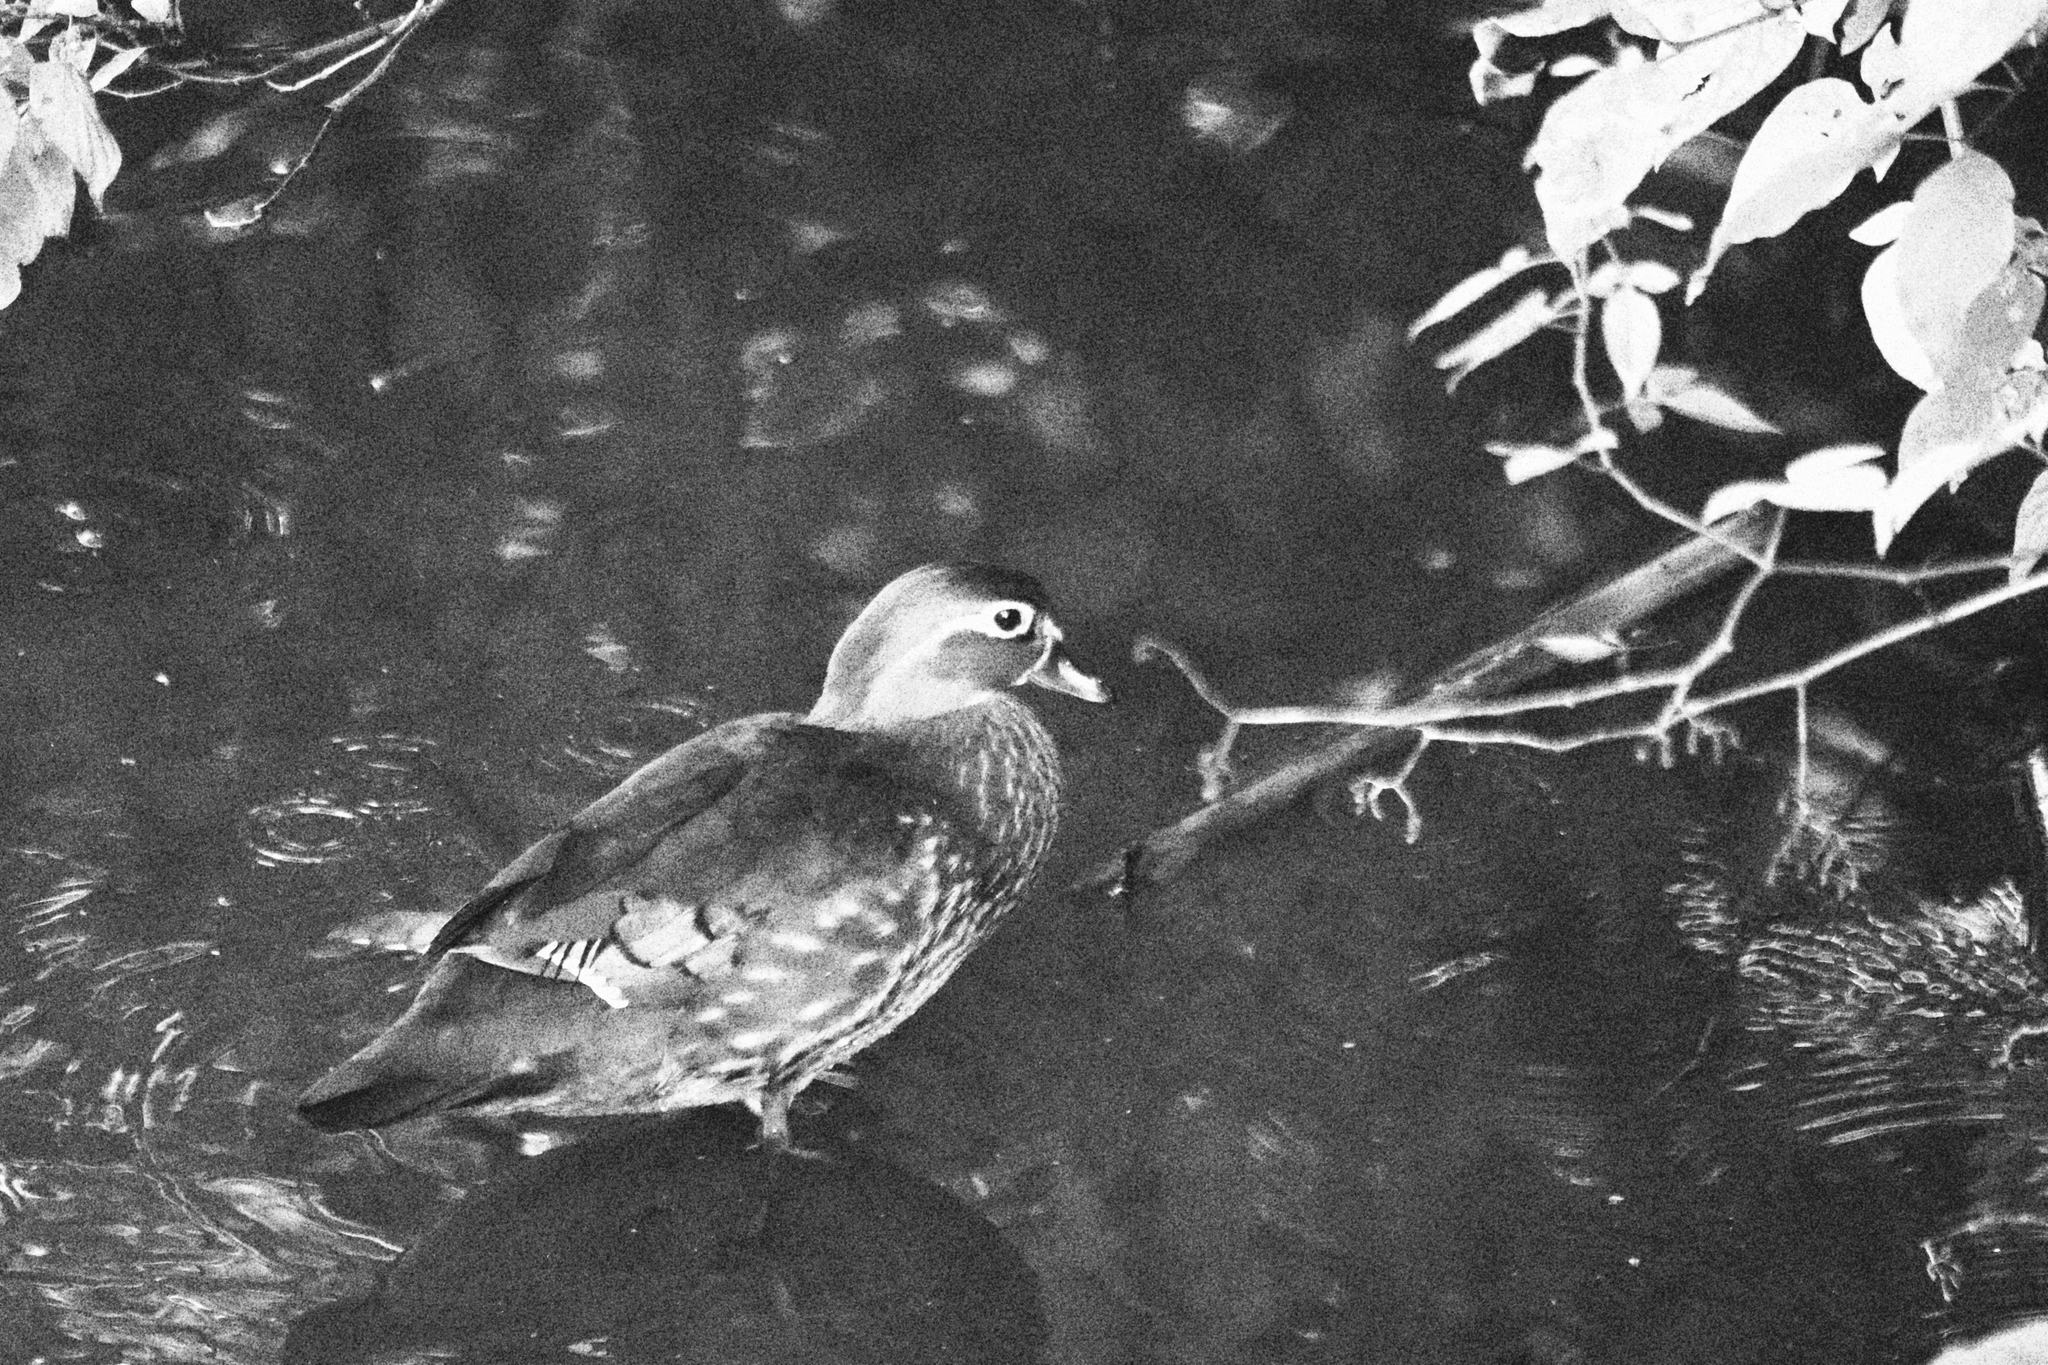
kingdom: Animalia
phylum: Chordata
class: Aves
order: Anseriformes
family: Anatidae
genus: Aix
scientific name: Aix sponsa
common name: Wood duck
